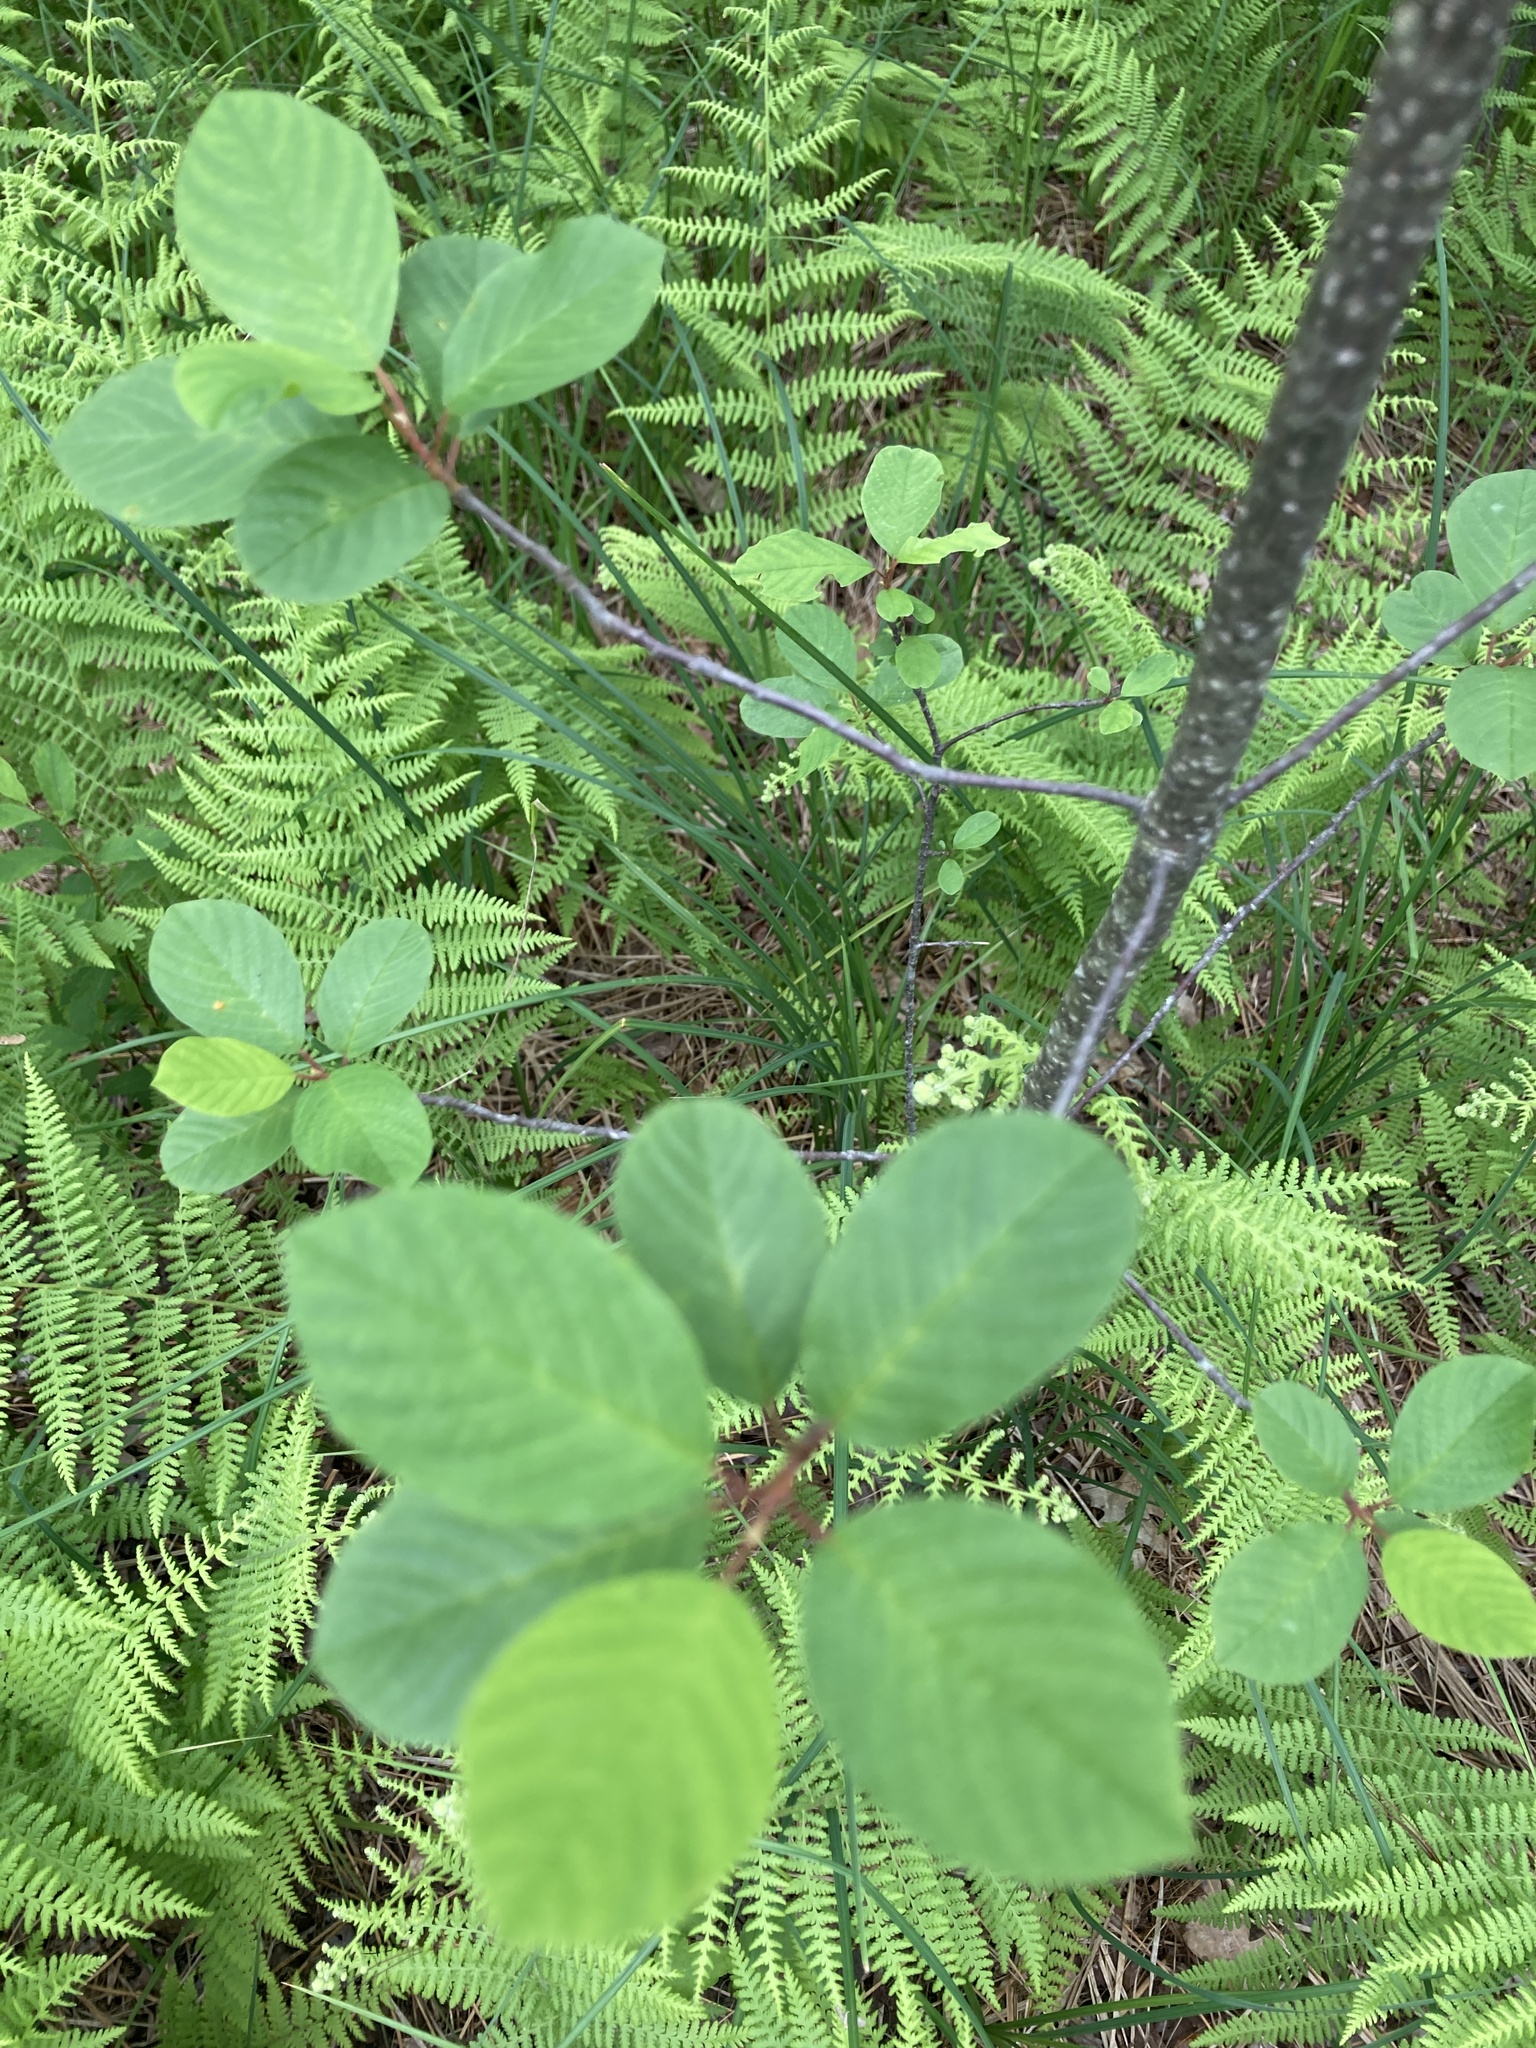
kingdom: Plantae
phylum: Tracheophyta
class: Magnoliopsida
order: Rosales
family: Rhamnaceae
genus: Frangula
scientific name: Frangula alnus
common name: Alder buckthorn
